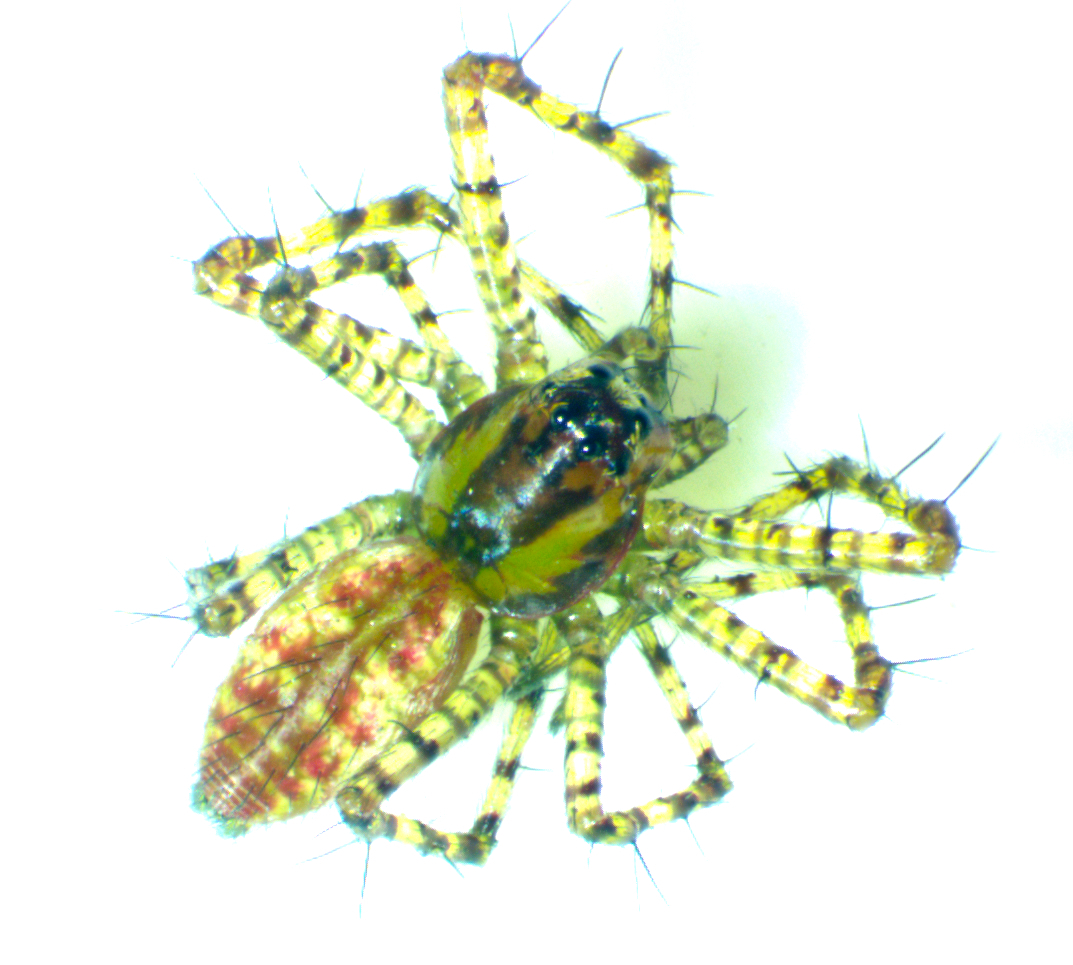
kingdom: Animalia
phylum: Arthropoda
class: Arachnida
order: Araneae
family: Oxyopidae
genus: Peucetia
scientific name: Peucetia viridans
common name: Lynx spiders
